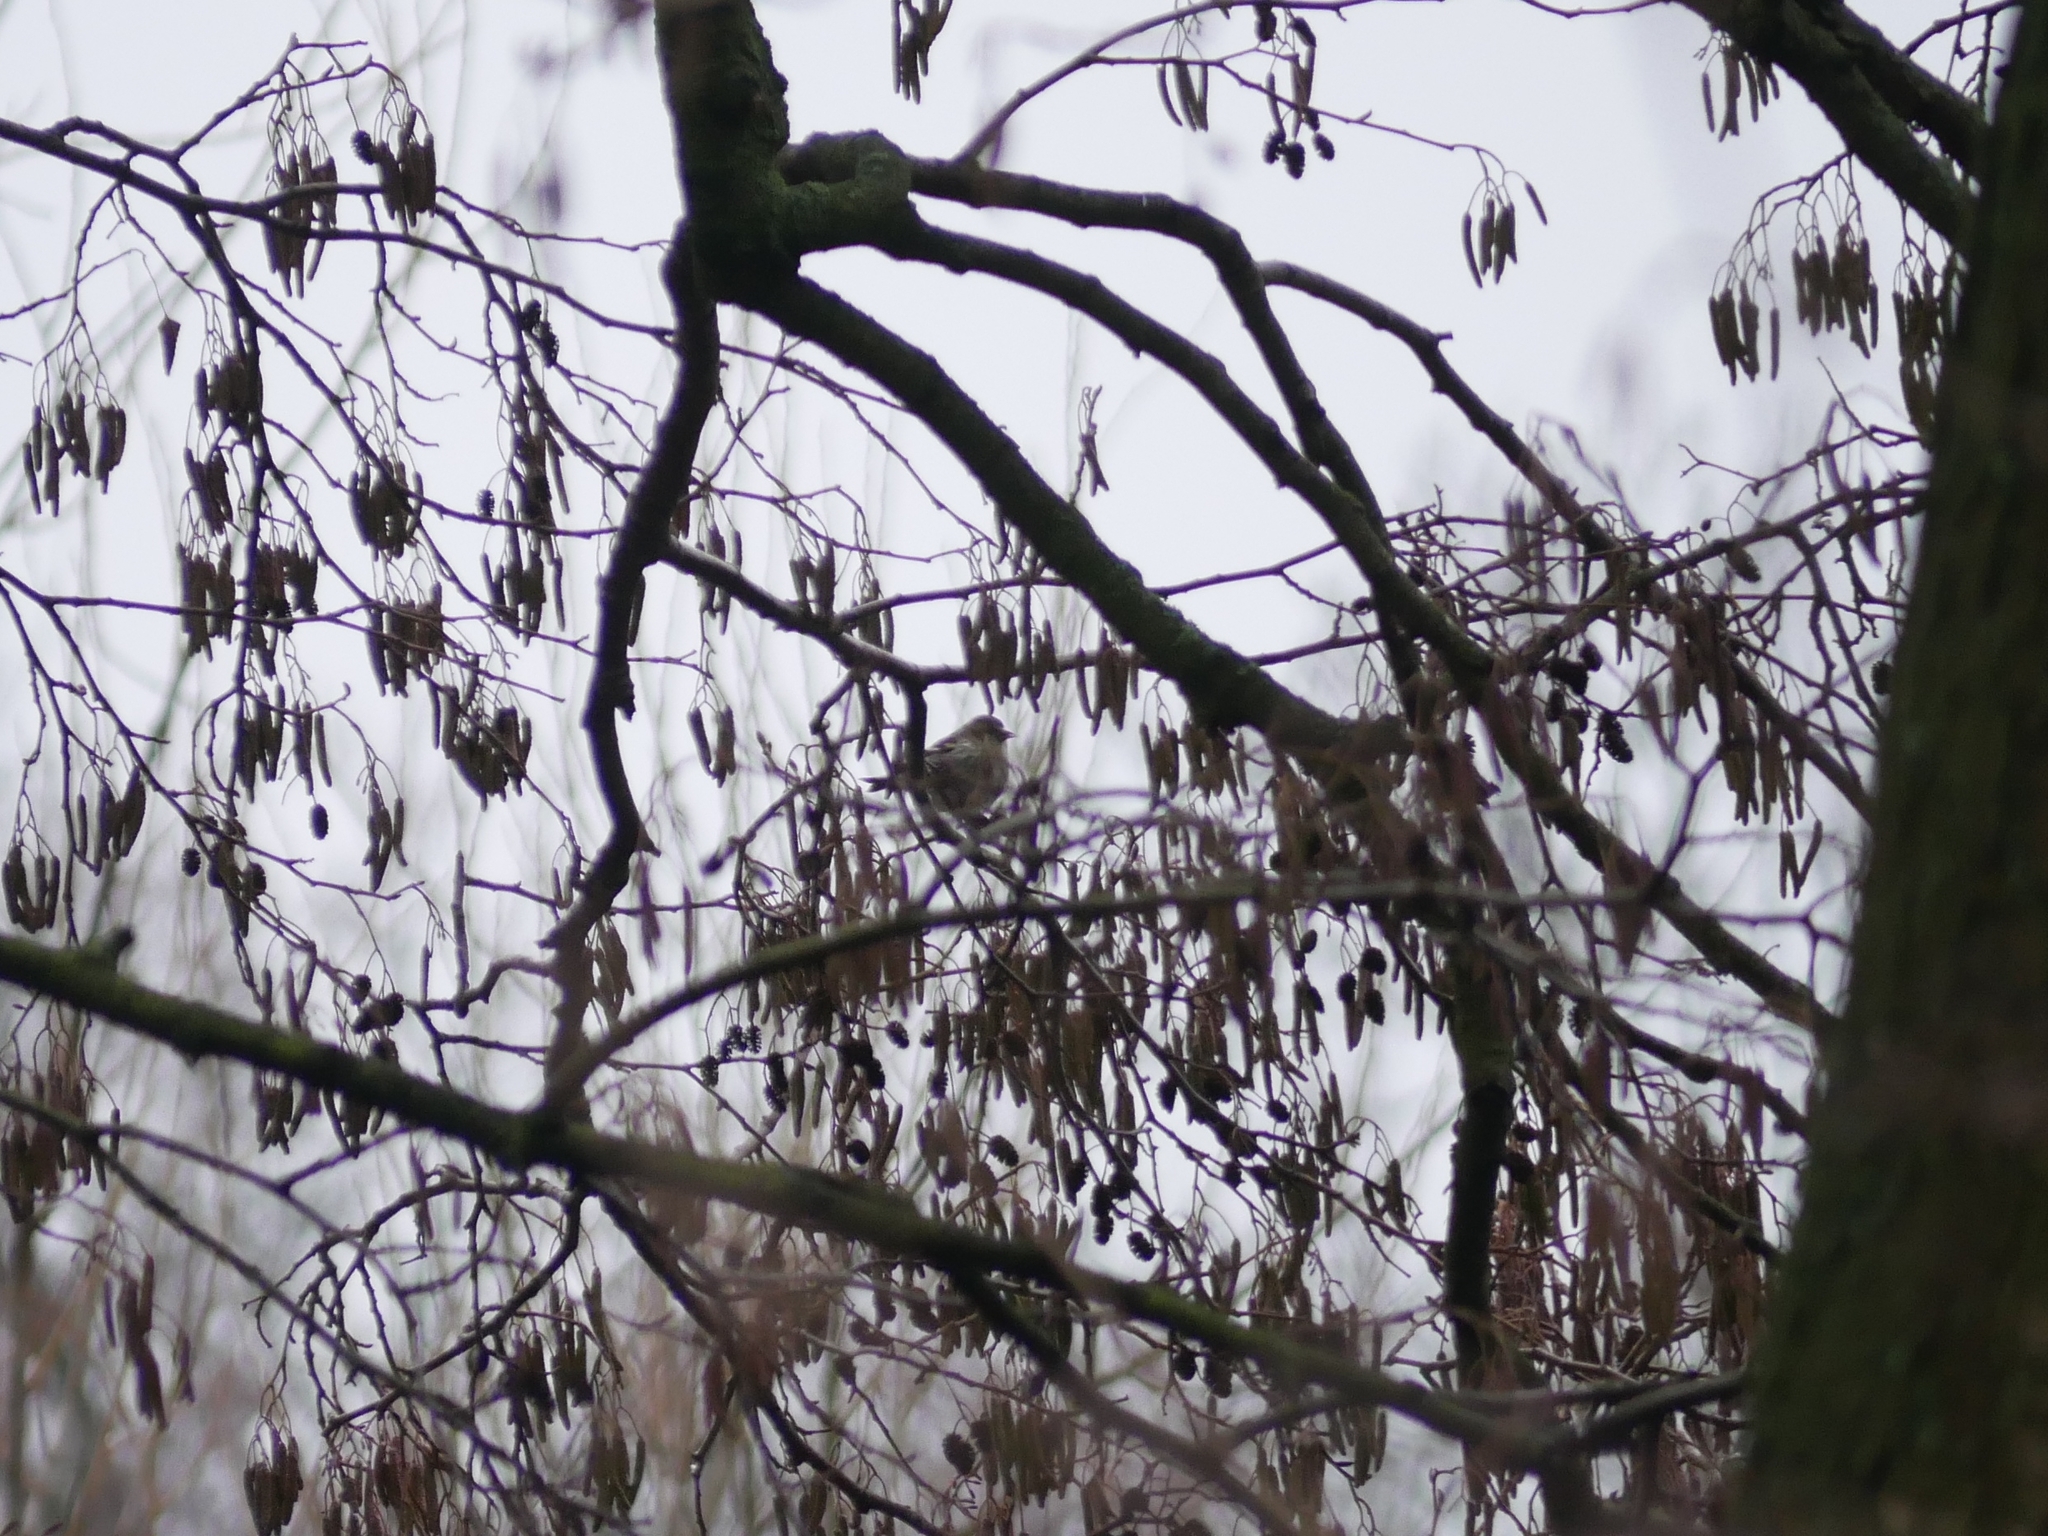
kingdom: Animalia
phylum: Chordata
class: Aves
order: Passeriformes
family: Fringillidae
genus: Spinus
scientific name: Spinus spinus
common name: Eurasian siskin
